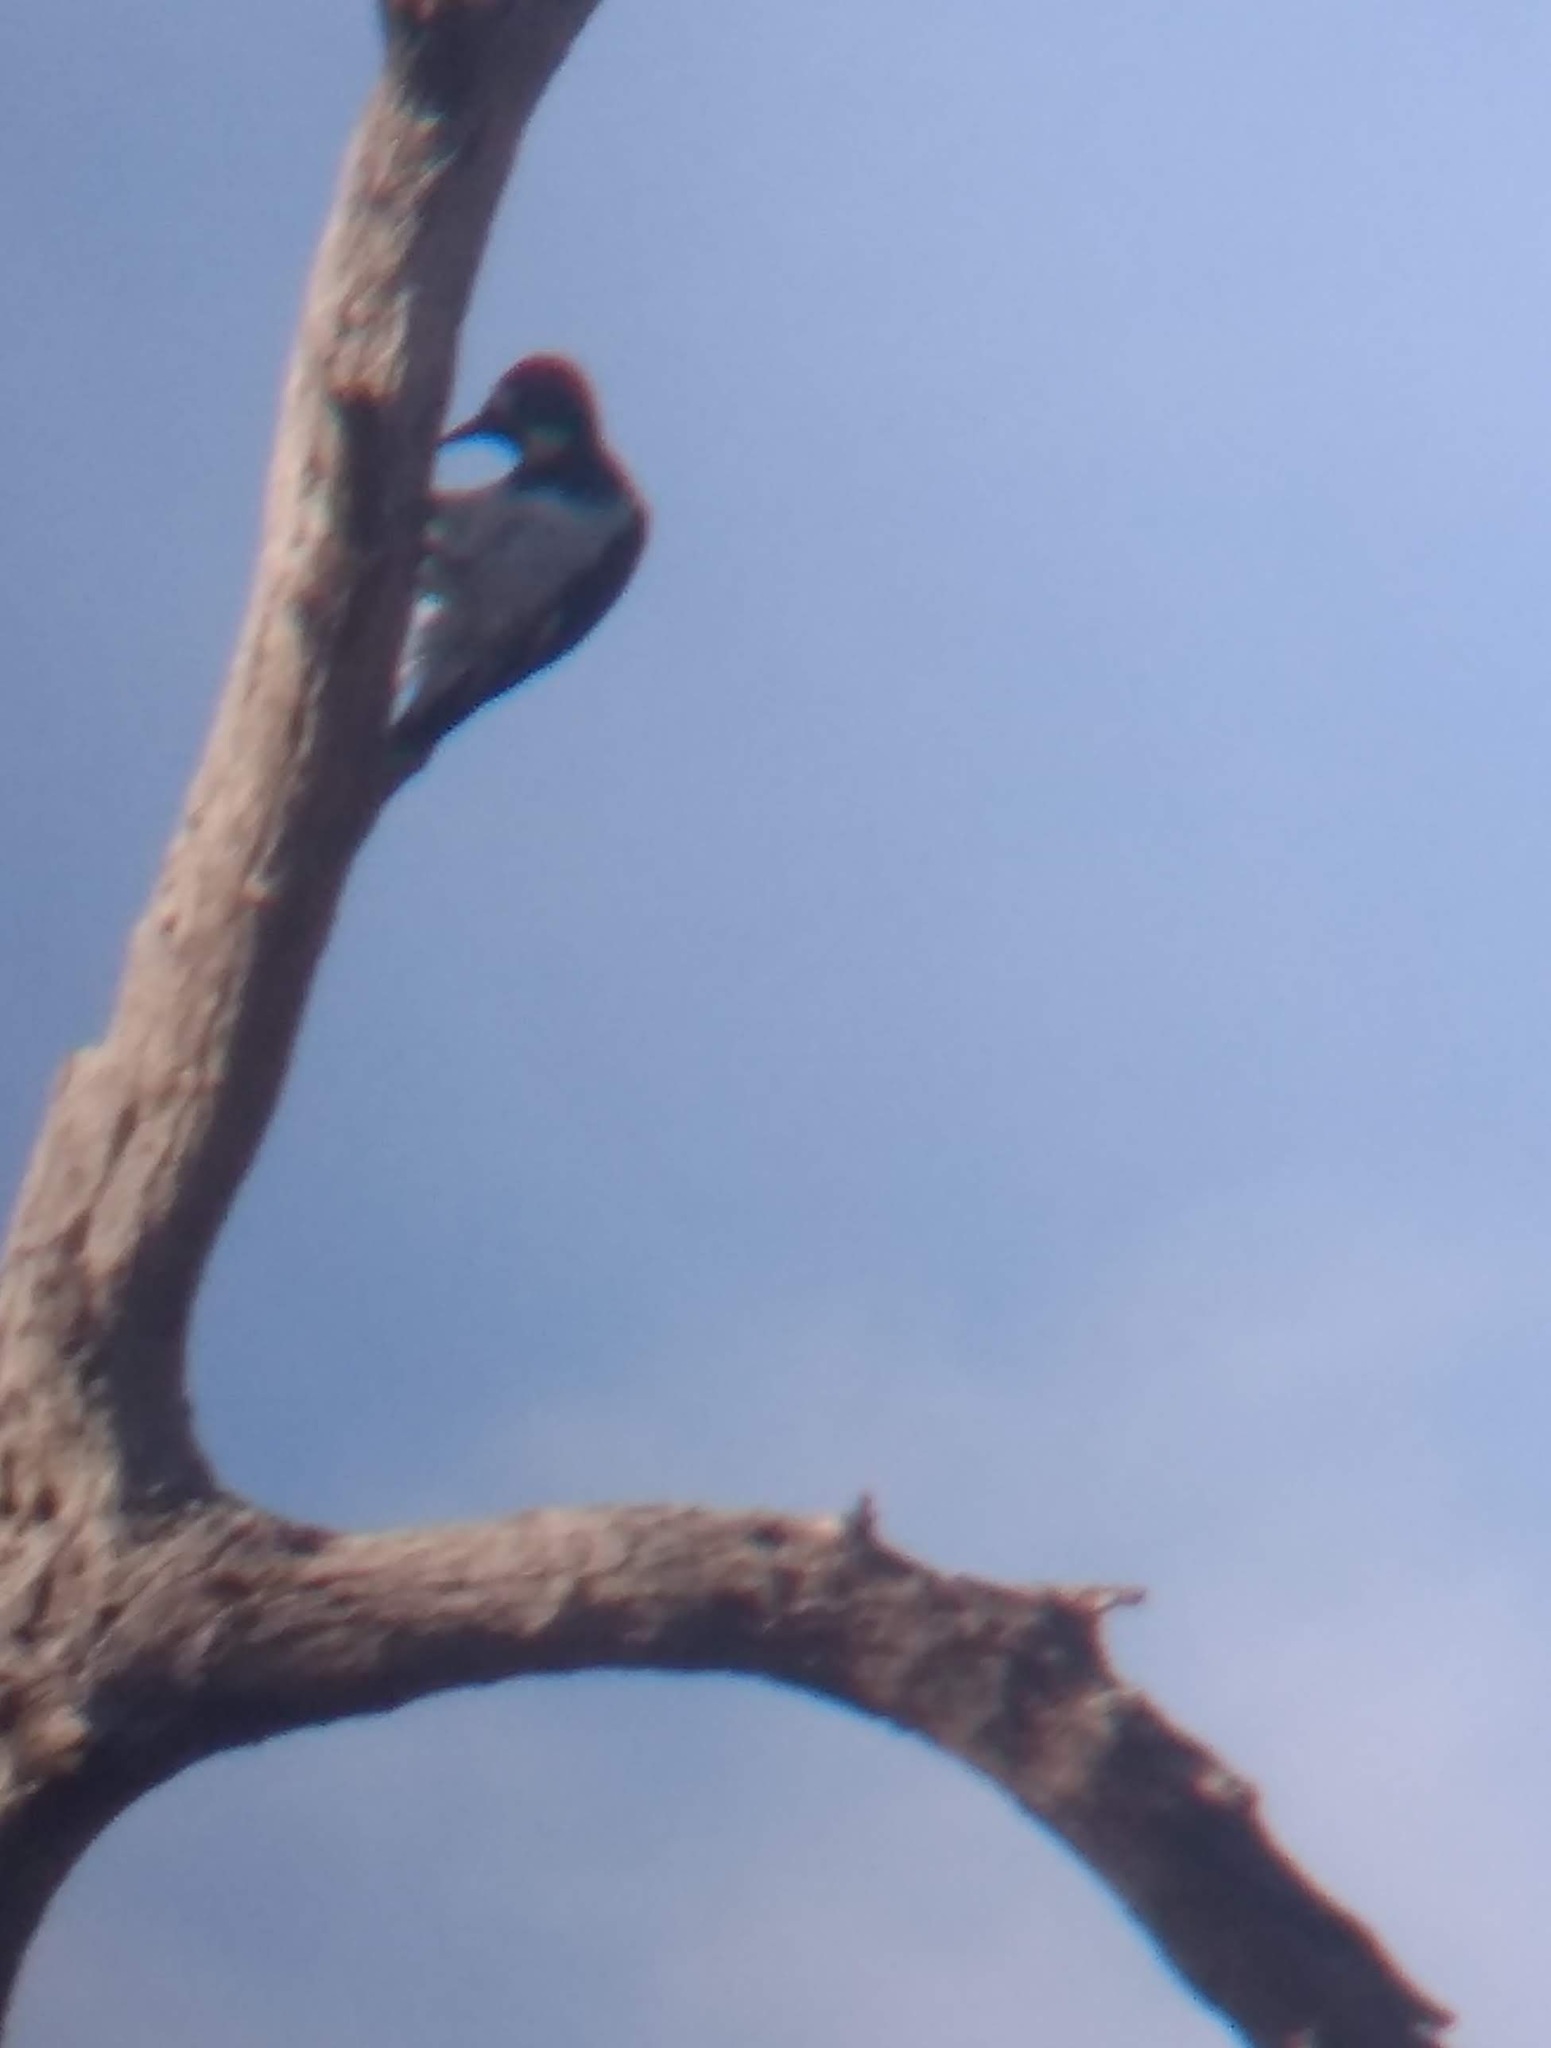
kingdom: Animalia
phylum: Chordata
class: Aves
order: Piciformes
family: Picidae
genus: Melanerpes
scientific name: Melanerpes formicivorus
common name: Acorn woodpecker
